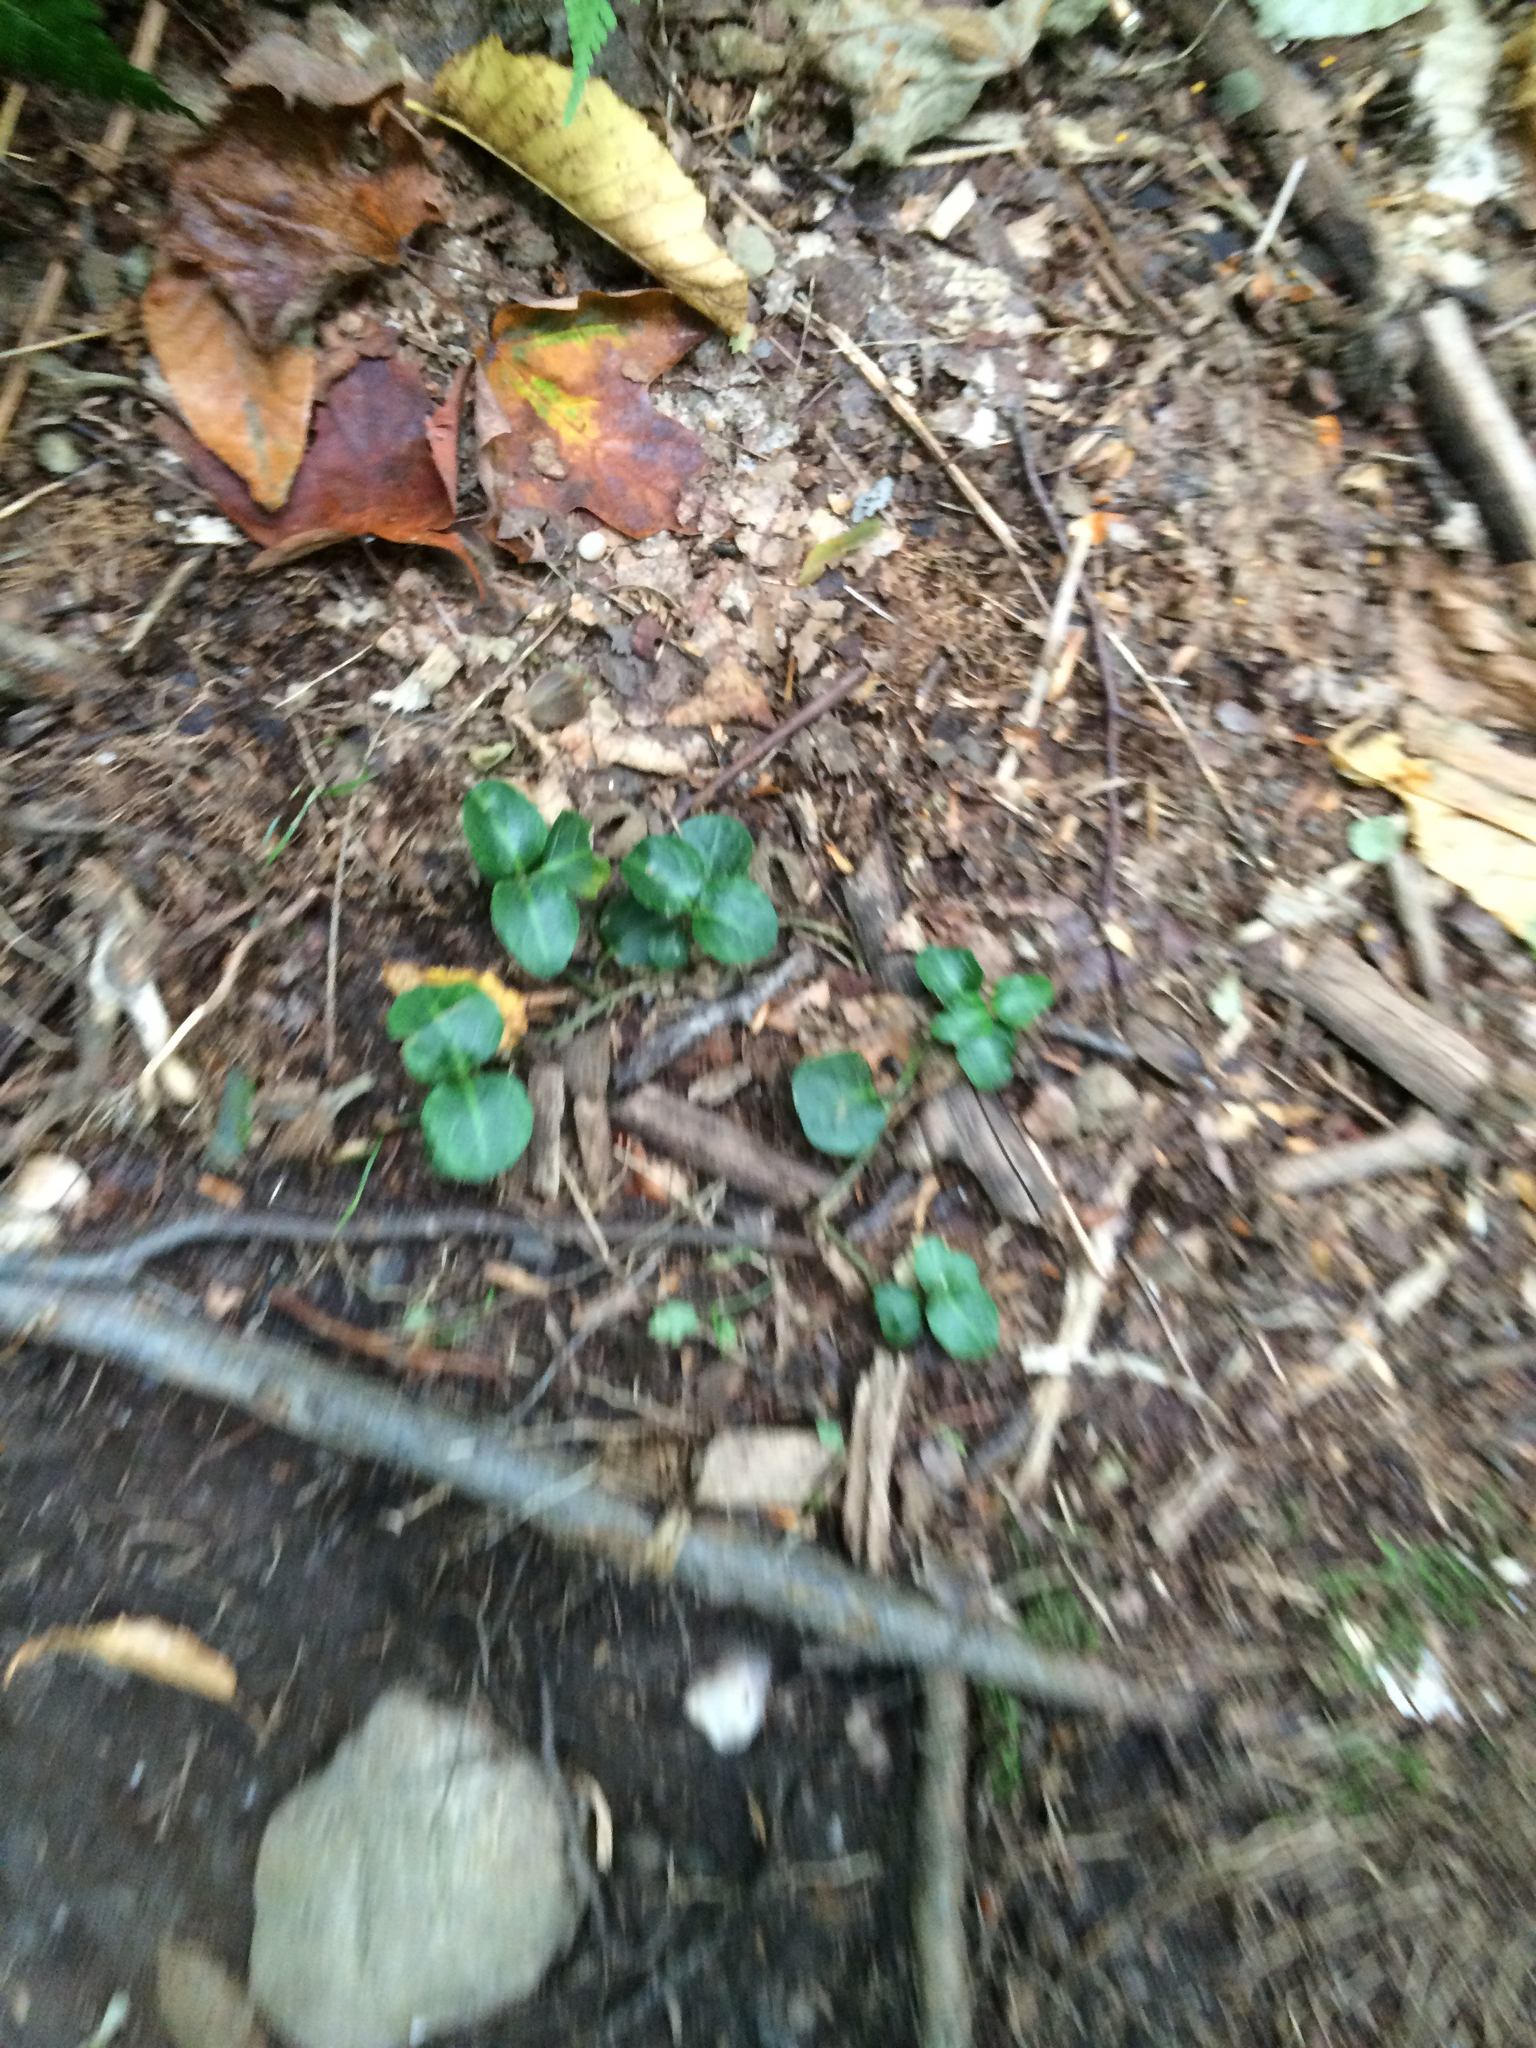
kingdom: Plantae
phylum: Tracheophyta
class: Magnoliopsida
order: Gentianales
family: Rubiaceae
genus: Mitchella
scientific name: Mitchella repens
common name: Partridge-berry
